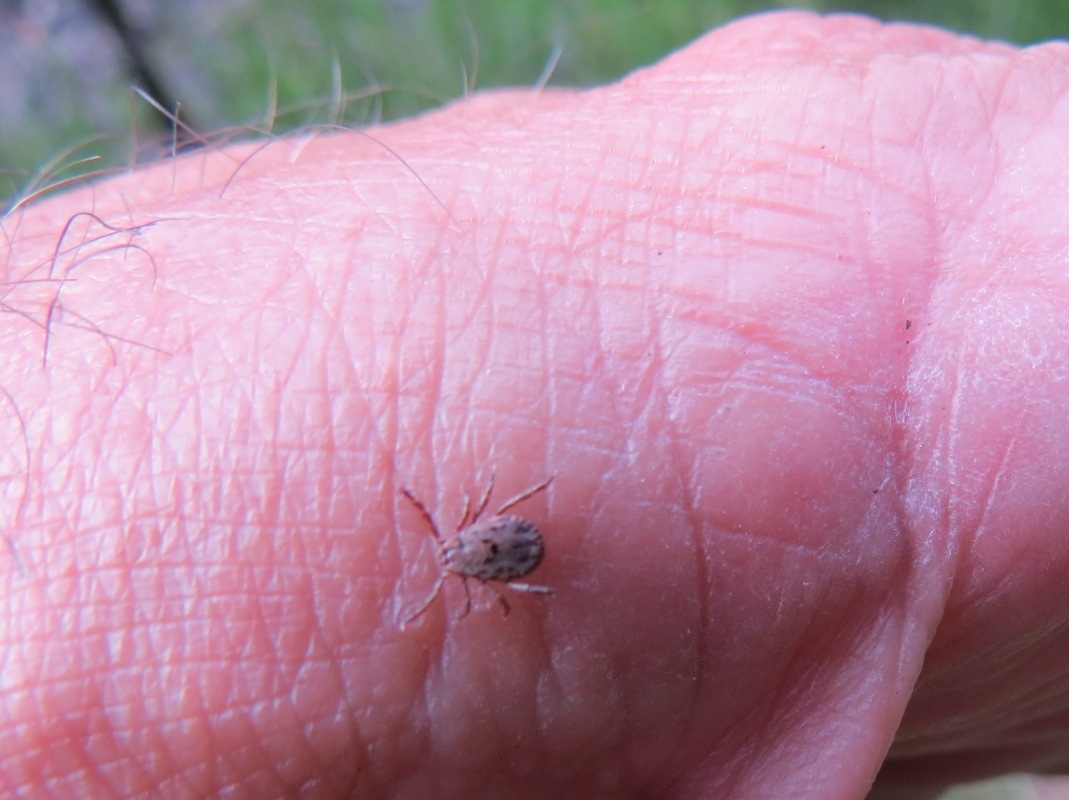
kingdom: Animalia
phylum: Arthropoda
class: Arachnida
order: Ixodida
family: Ixodidae
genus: Dermacentor
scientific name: Dermacentor occidentalis
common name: Net tick
